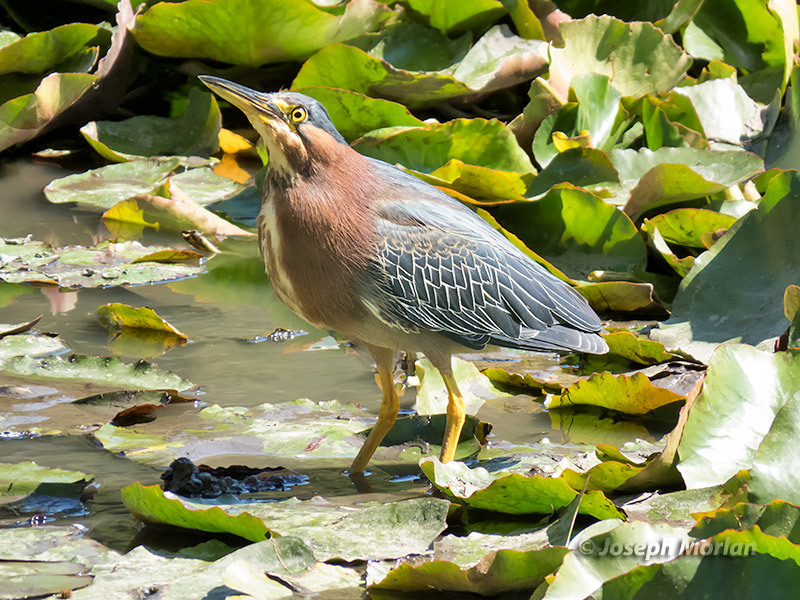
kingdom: Animalia
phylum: Chordata
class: Aves
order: Pelecaniformes
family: Ardeidae
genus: Butorides
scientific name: Butorides virescens
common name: Green heron
